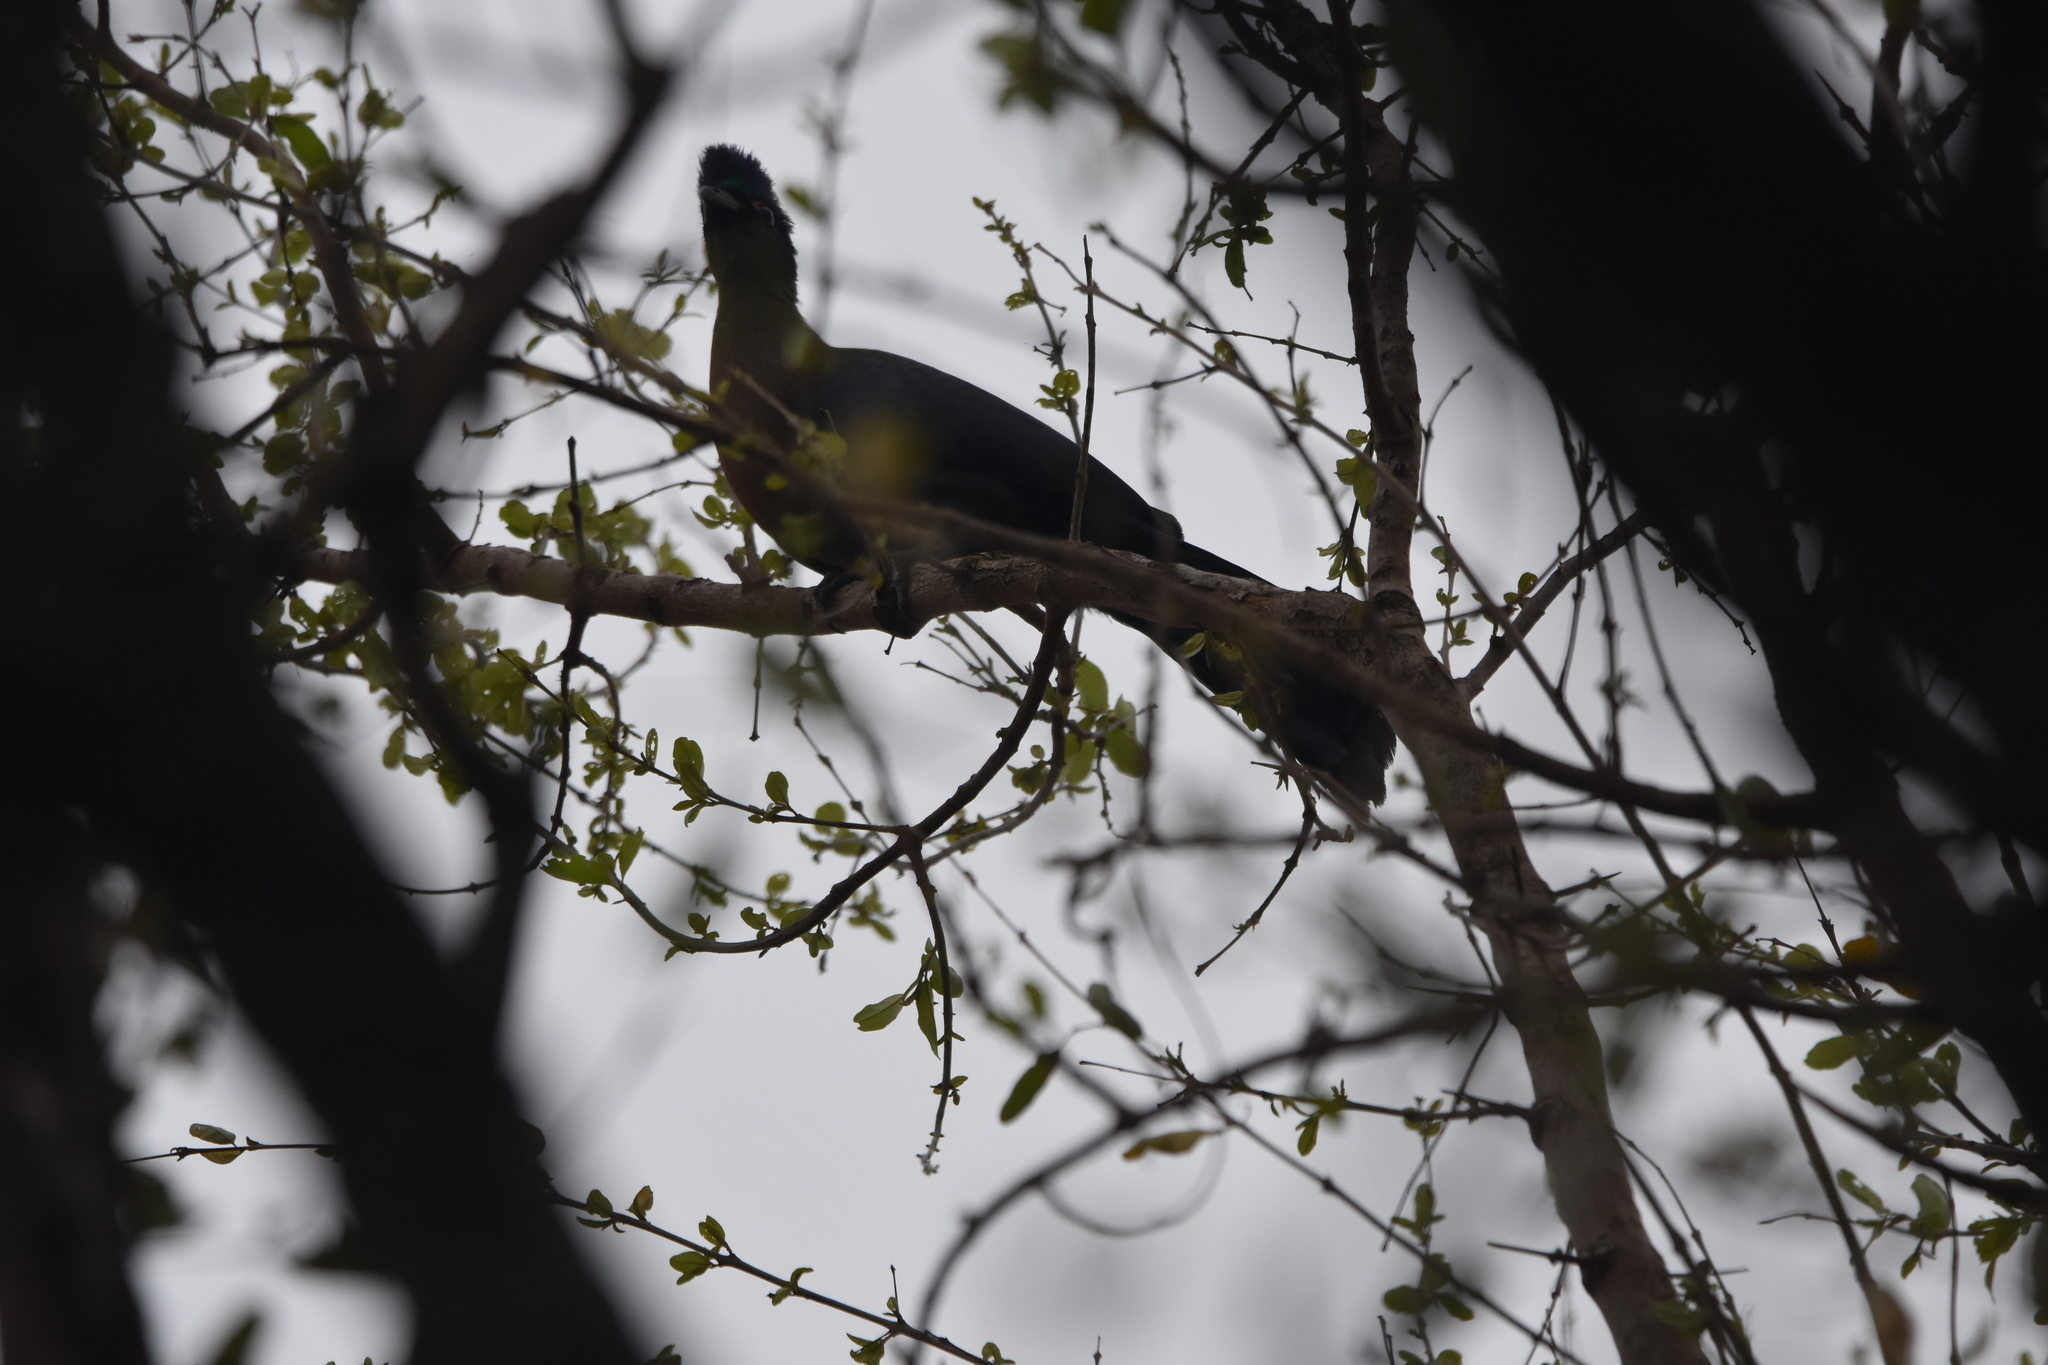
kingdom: Animalia
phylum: Chordata
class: Aves
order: Musophagiformes
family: Musophagidae
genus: Tauraco
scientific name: Tauraco porphyreolophus
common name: Purple-crested turaco
